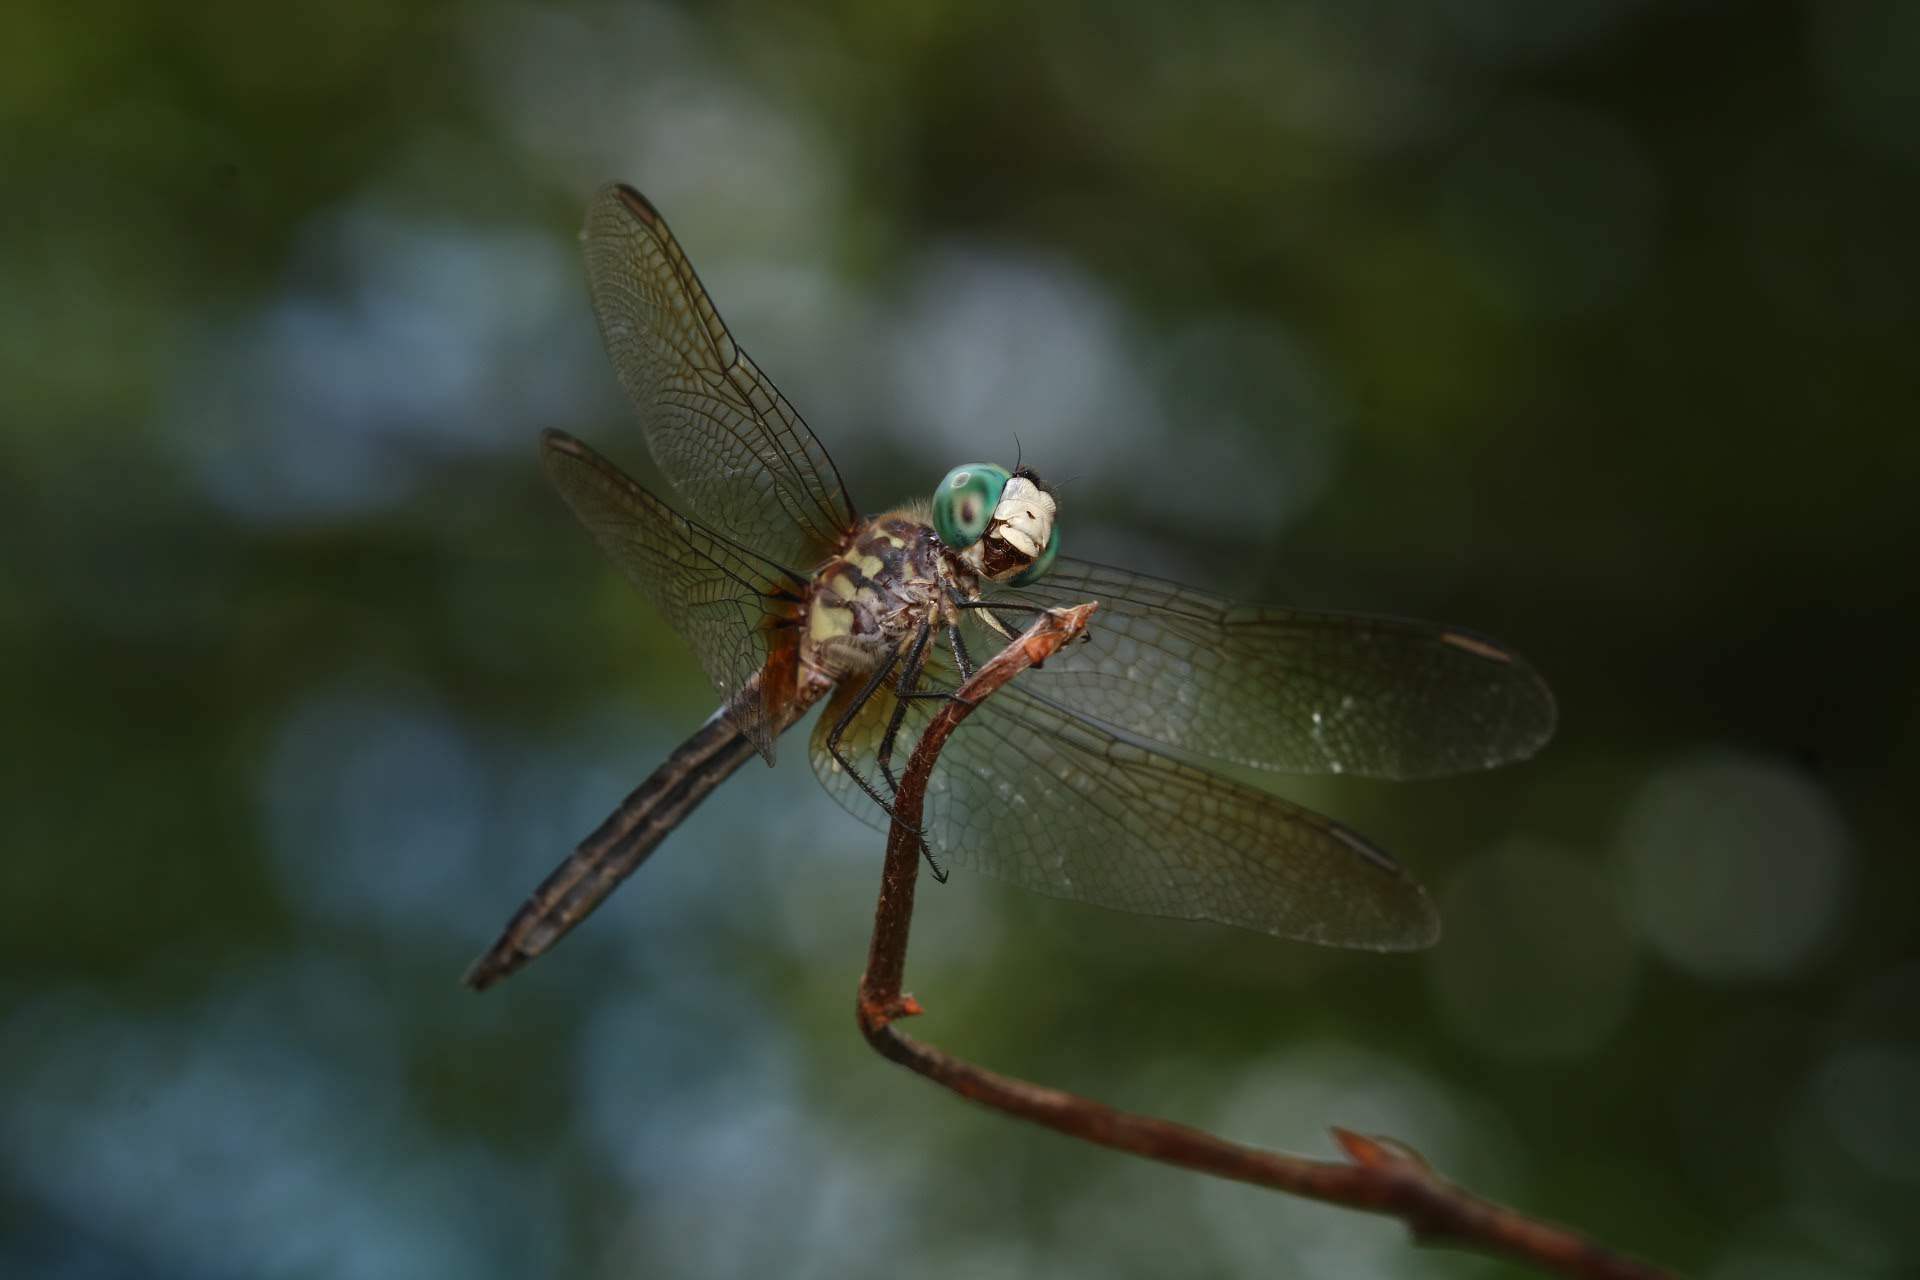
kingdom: Animalia
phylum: Arthropoda
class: Insecta
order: Odonata
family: Libellulidae
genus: Pachydiplax
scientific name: Pachydiplax longipennis
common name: Blue dasher
